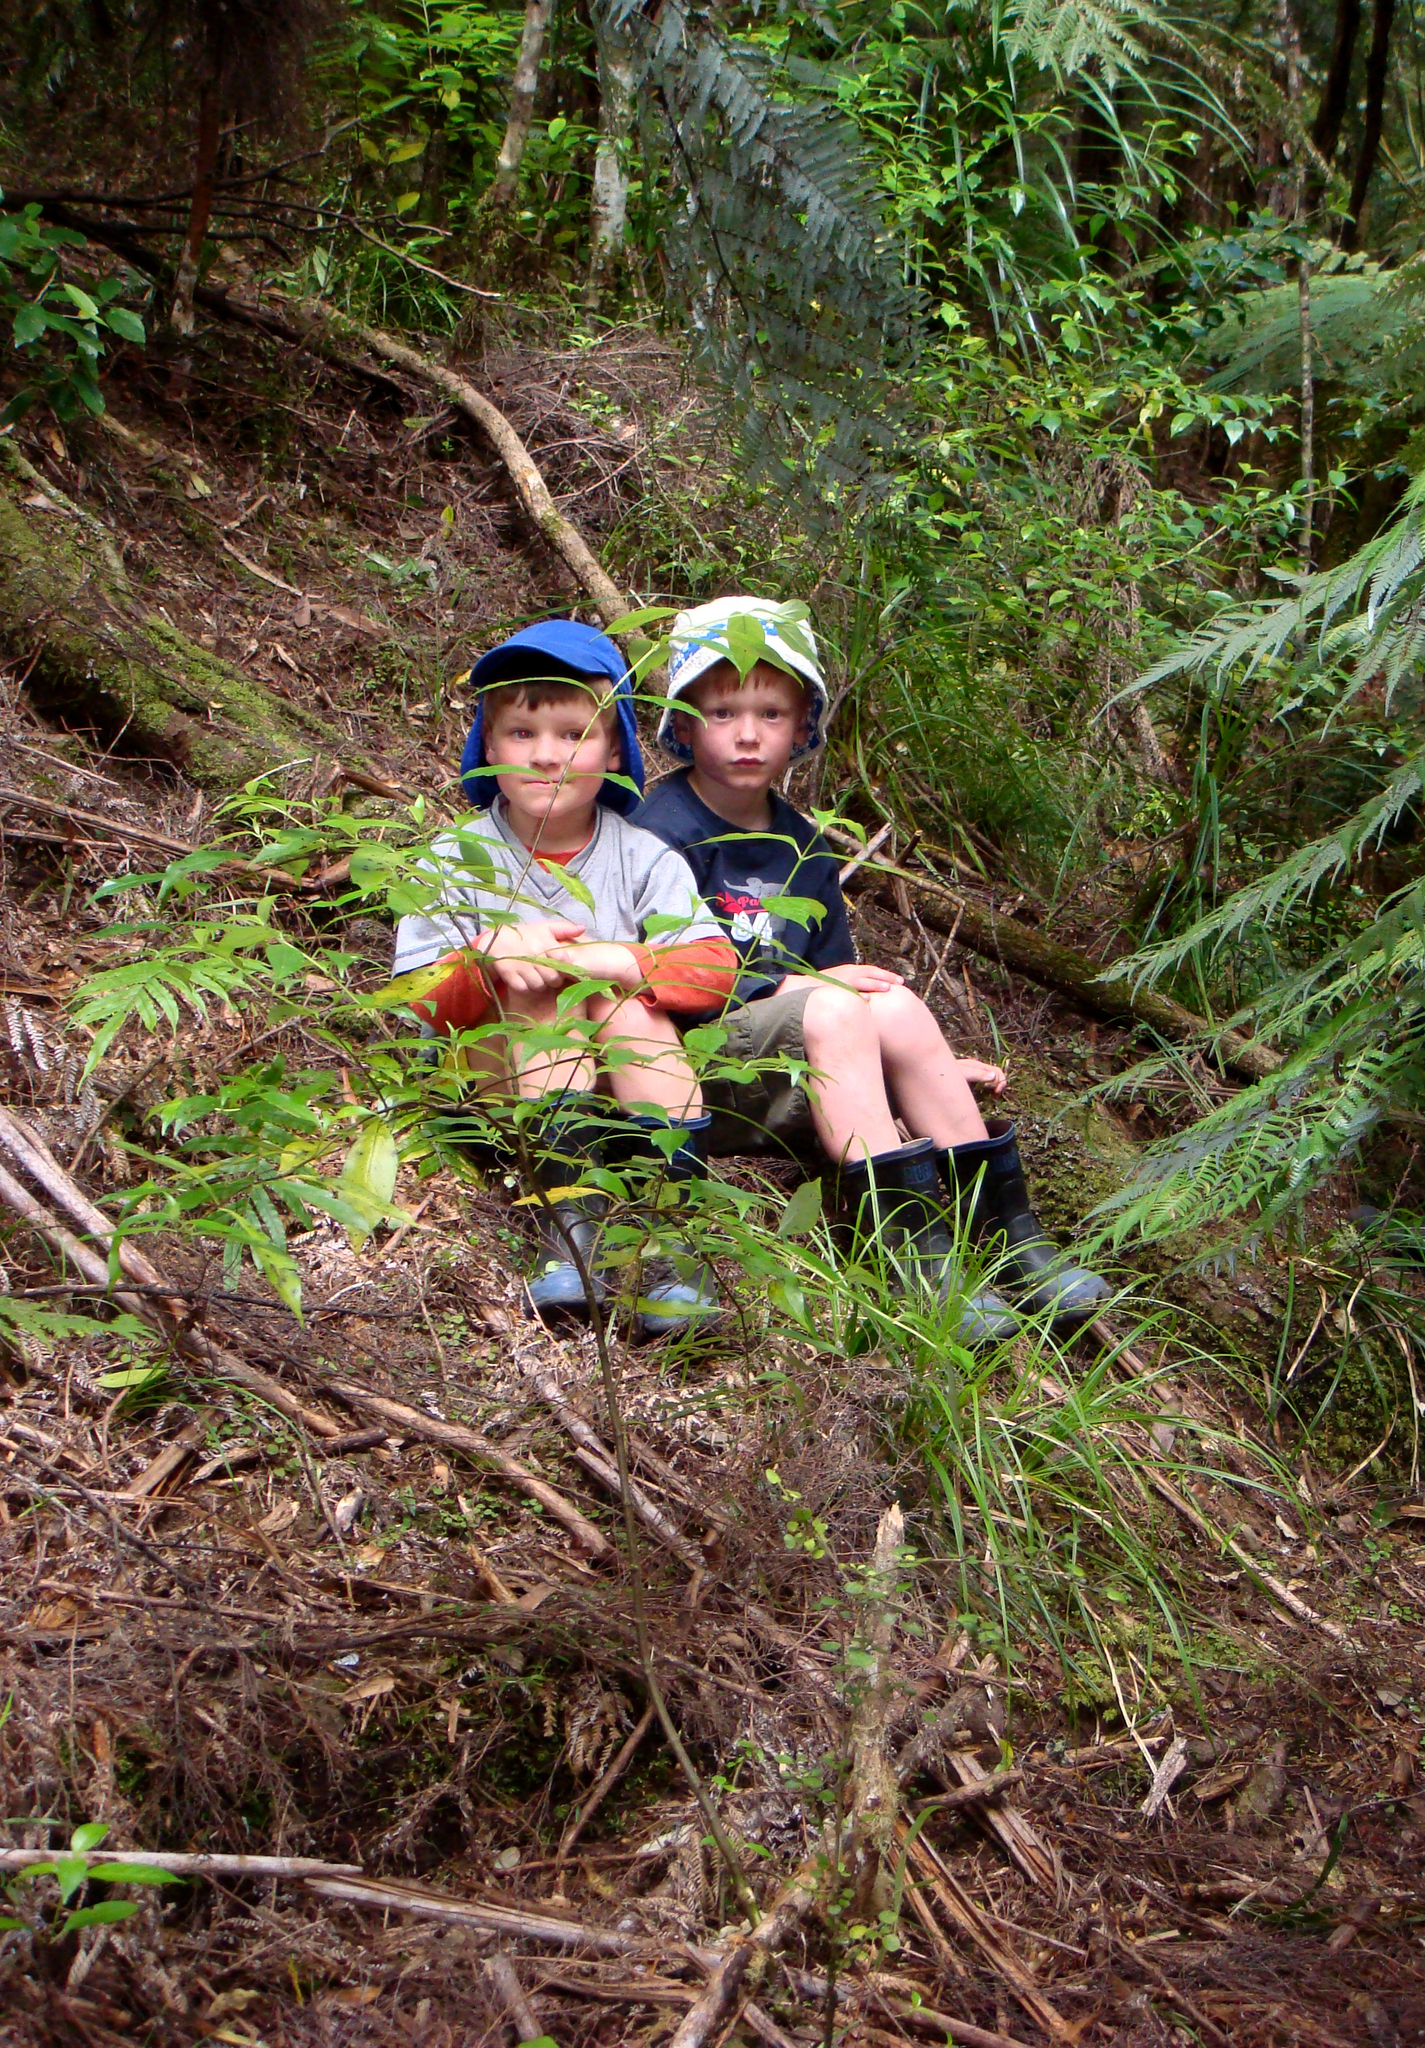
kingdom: Plantae
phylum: Tracheophyta
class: Magnoliopsida
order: Lamiales
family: Plantaginaceae
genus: Veronica
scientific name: Veronica jovellanoides
